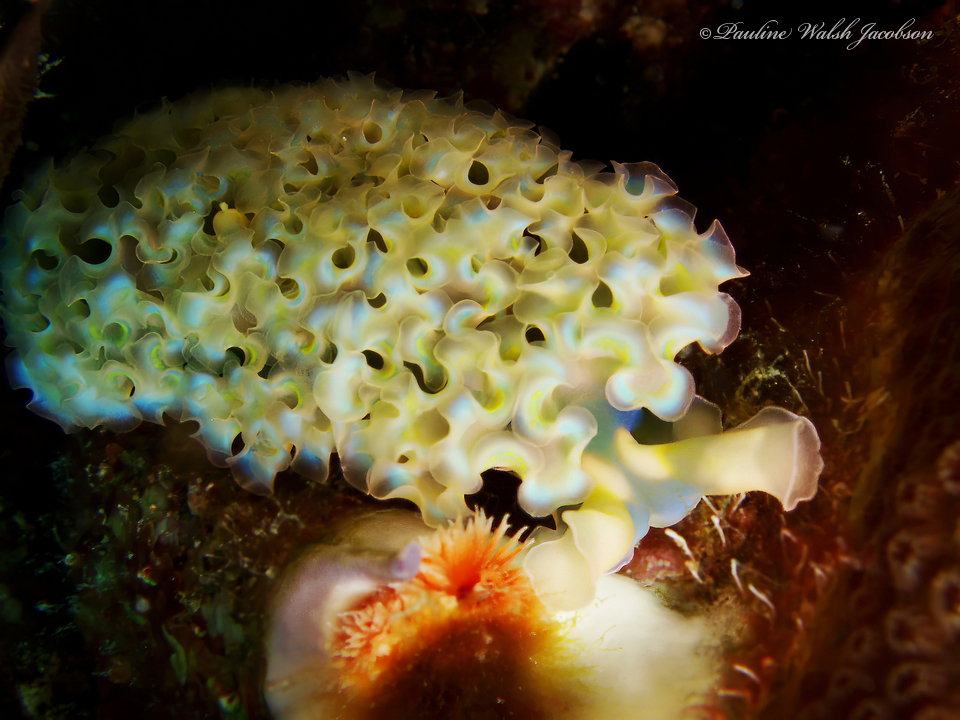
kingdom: Animalia
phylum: Mollusca
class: Gastropoda
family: Plakobranchidae
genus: Elysia
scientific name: Elysia crispata
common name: Lettuce slug
